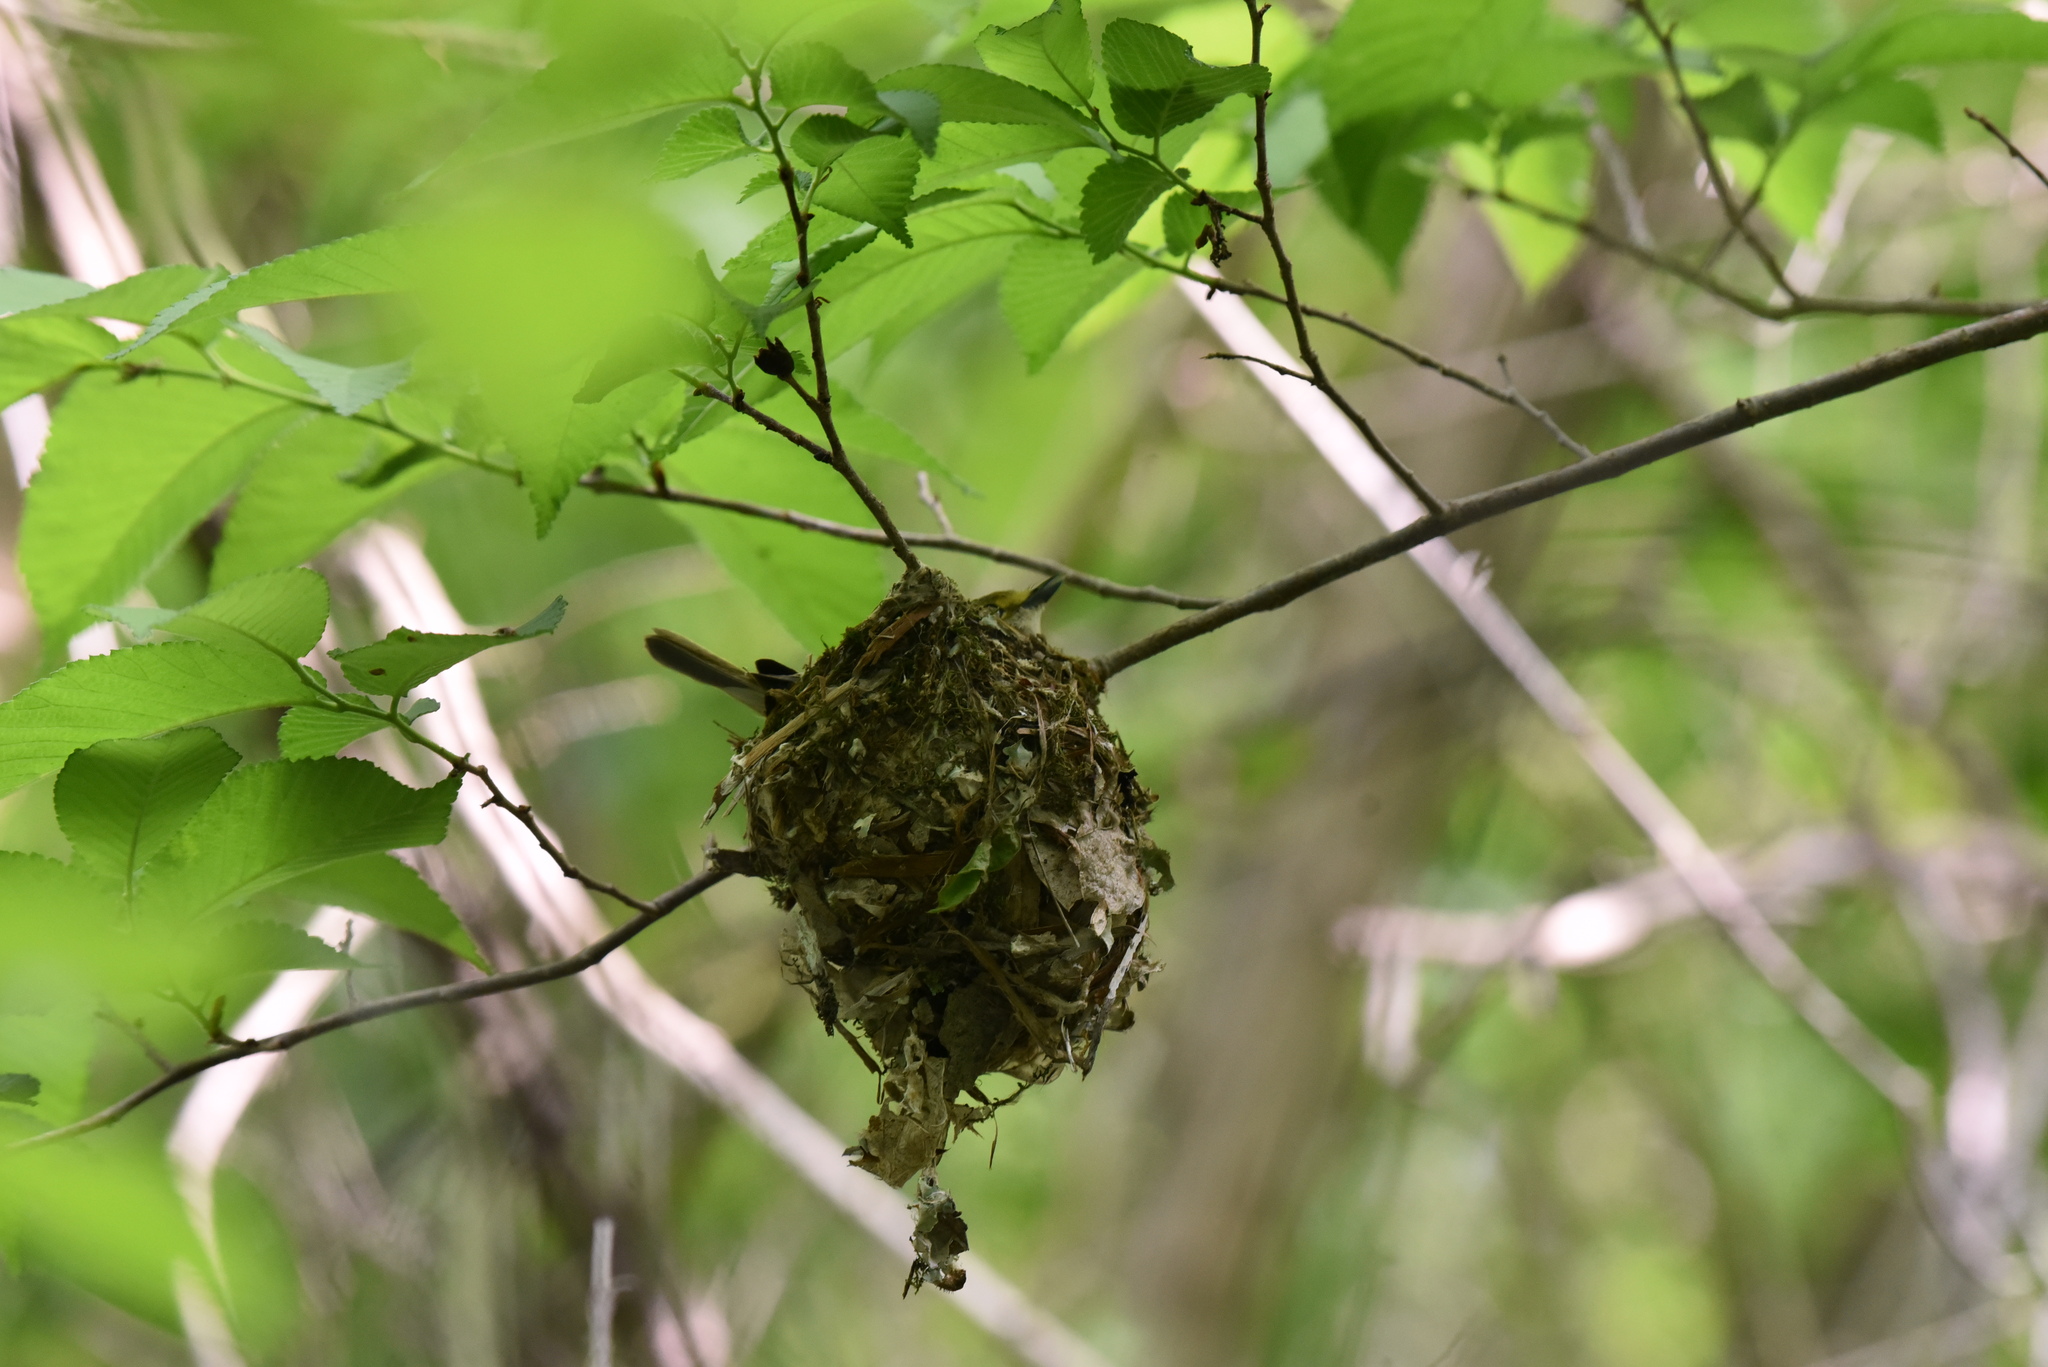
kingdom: Animalia
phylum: Chordata
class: Aves
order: Passeriformes
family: Vireonidae
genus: Vireo
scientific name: Vireo griseus
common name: White-eyed vireo
